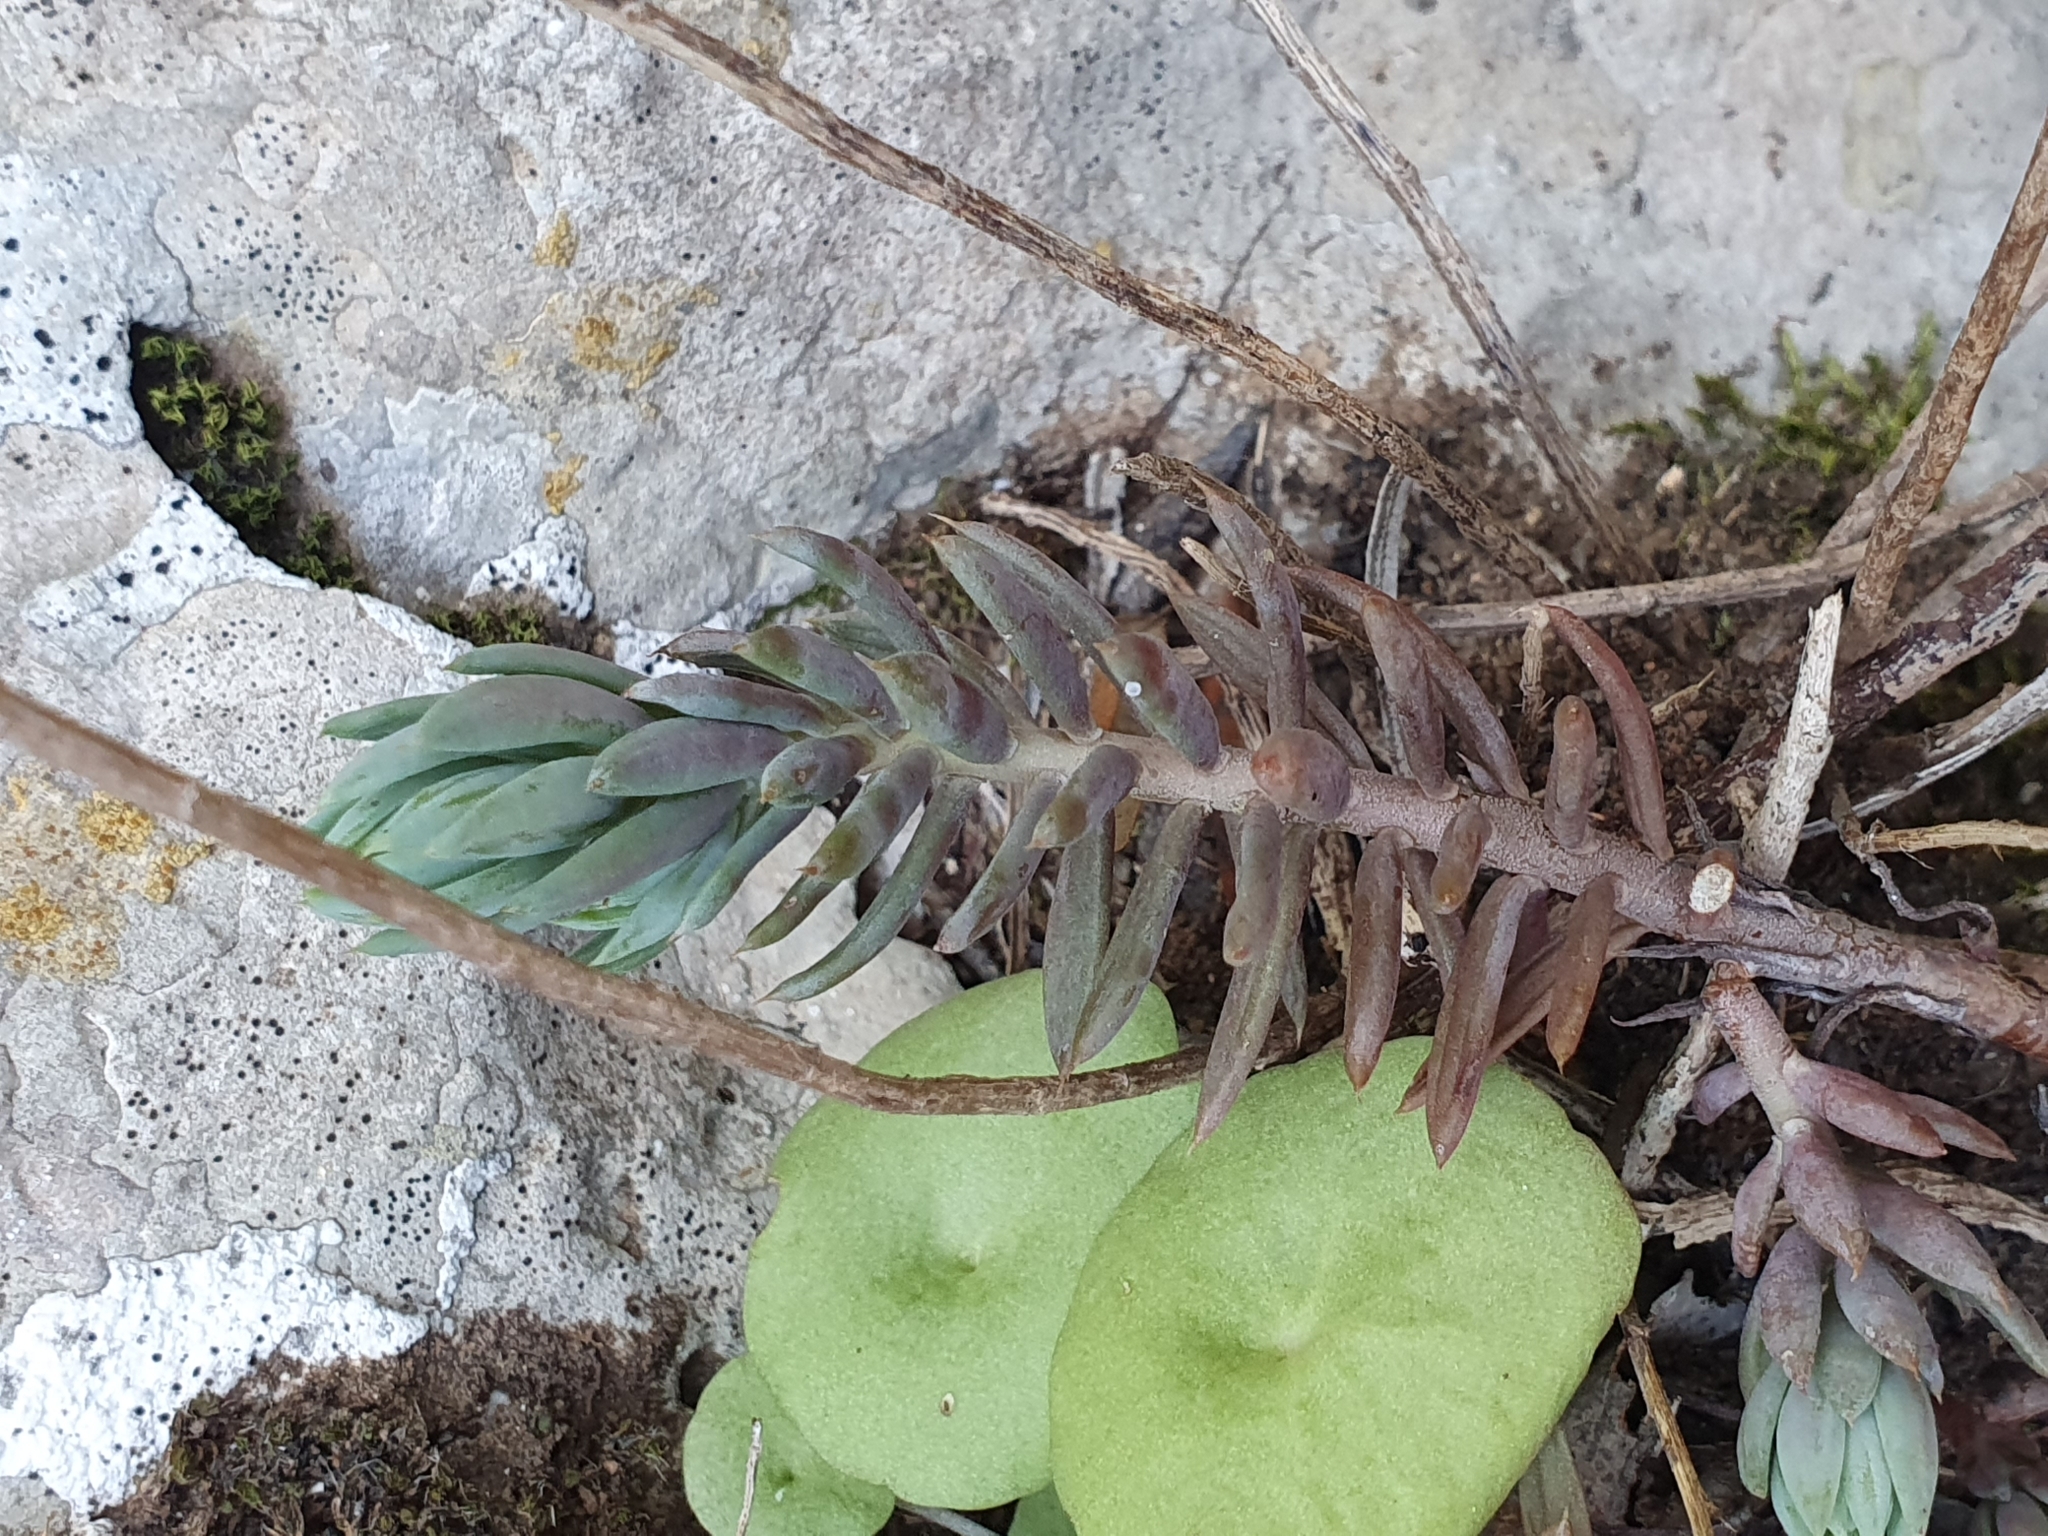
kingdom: Plantae
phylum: Tracheophyta
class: Magnoliopsida
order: Saxifragales
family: Crassulaceae
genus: Petrosedum
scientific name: Petrosedum sediforme
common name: Pale stonecrop
